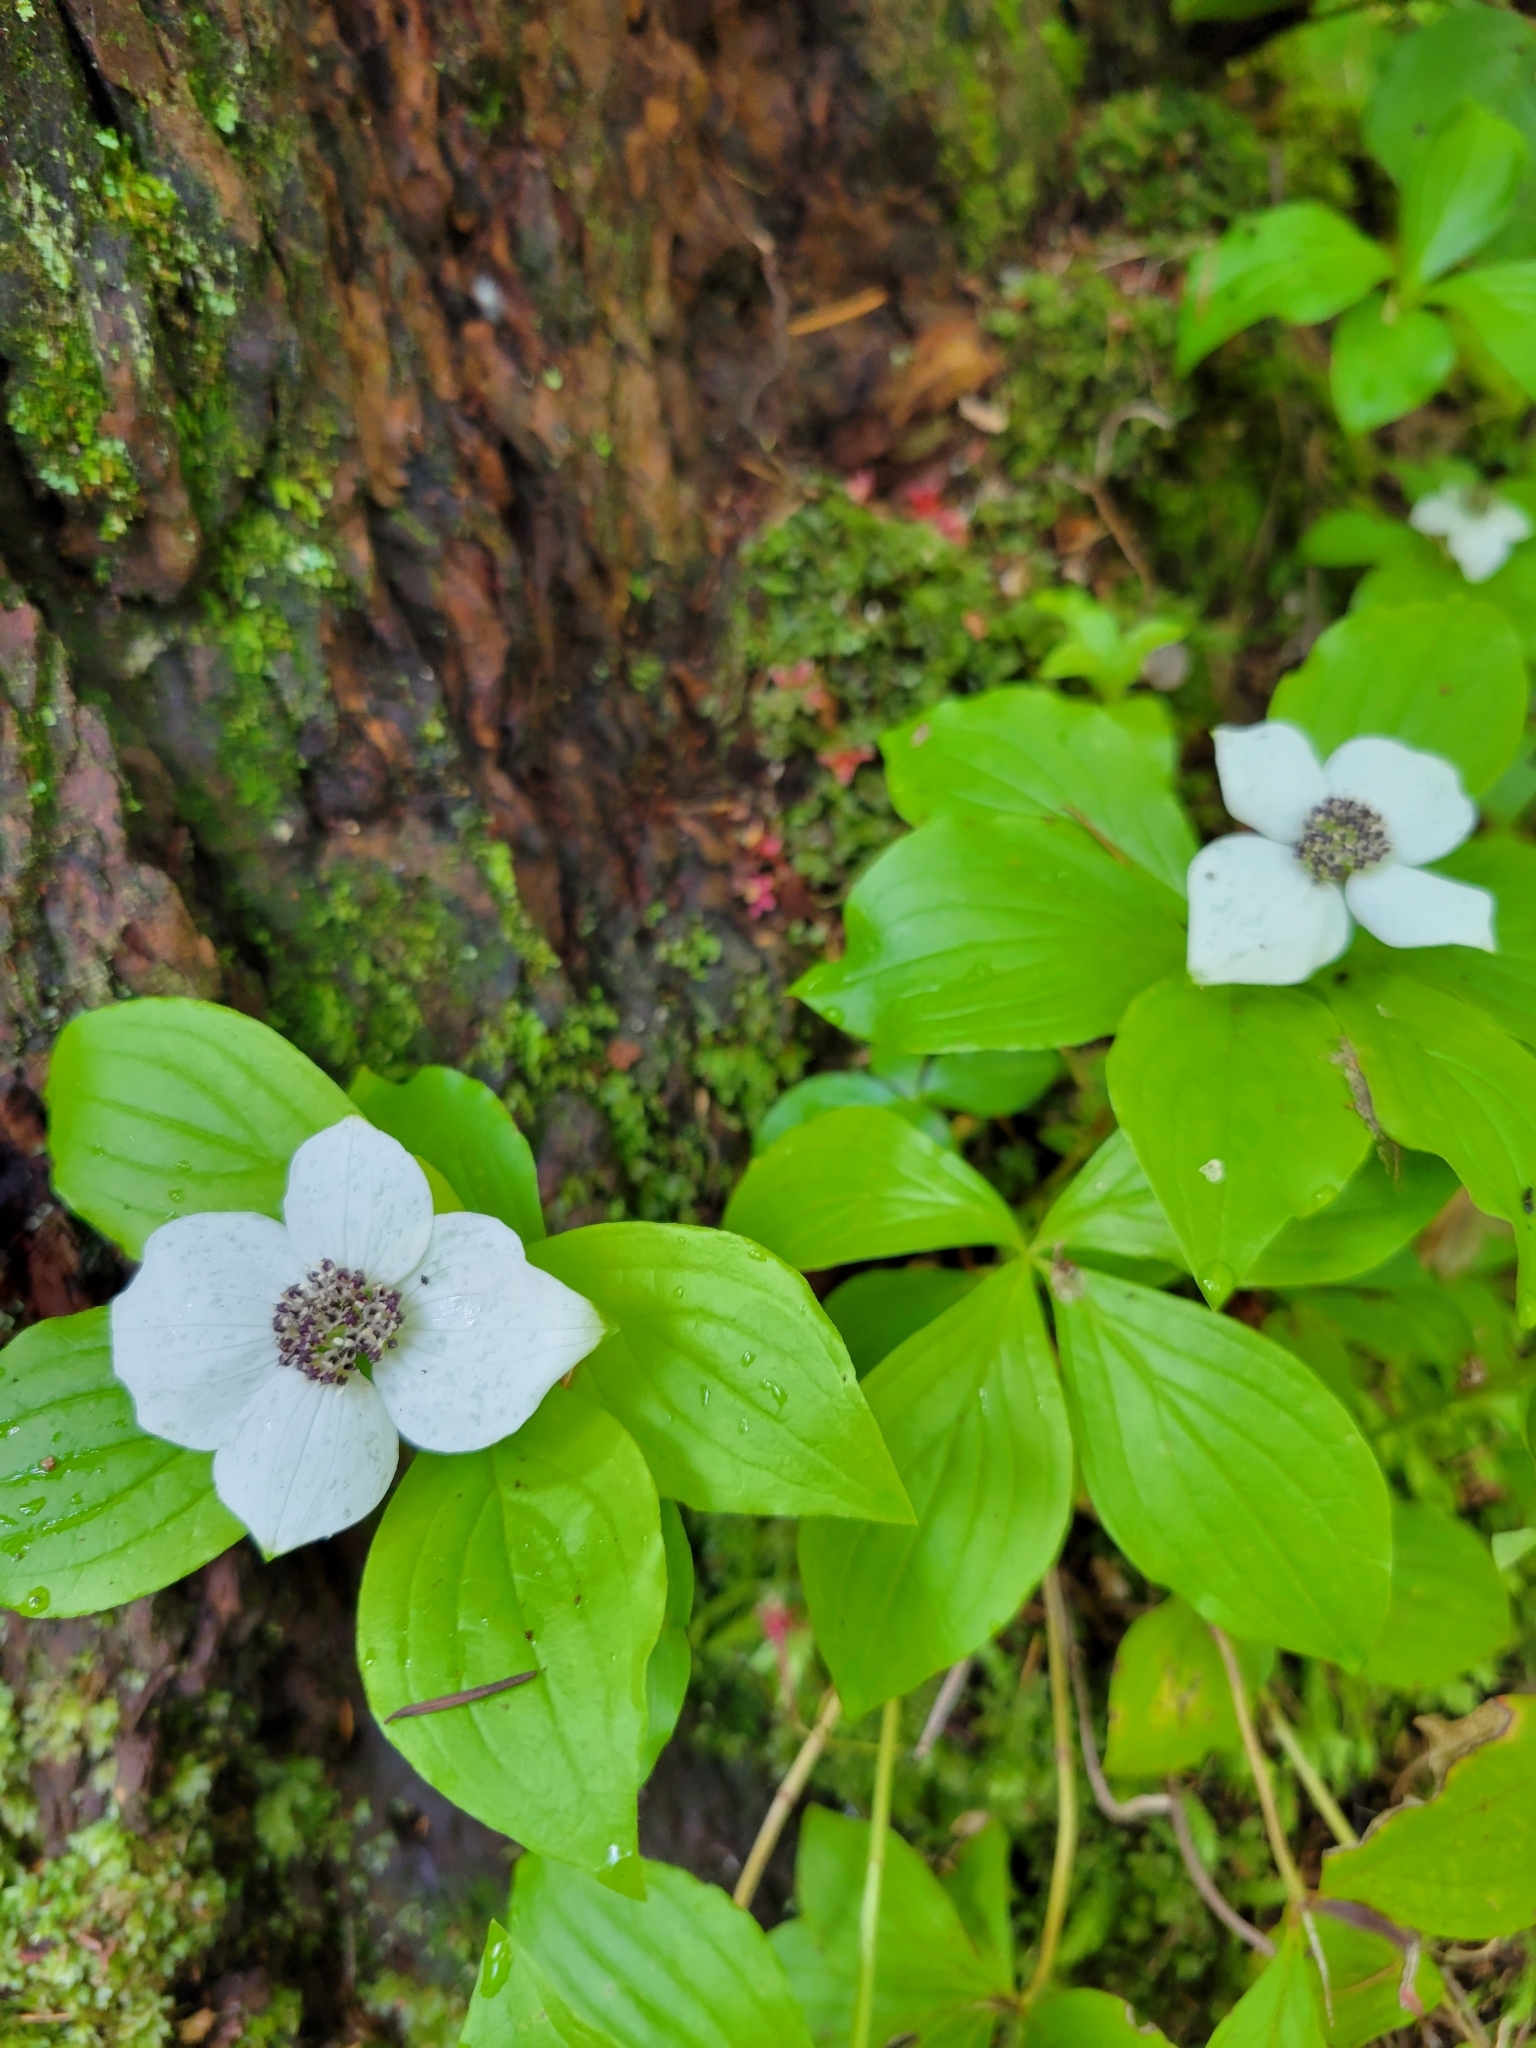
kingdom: Plantae
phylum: Tracheophyta
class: Magnoliopsida
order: Cornales
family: Cornaceae
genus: Cornus
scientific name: Cornus unalaschkensis
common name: Alaska bunchberry
